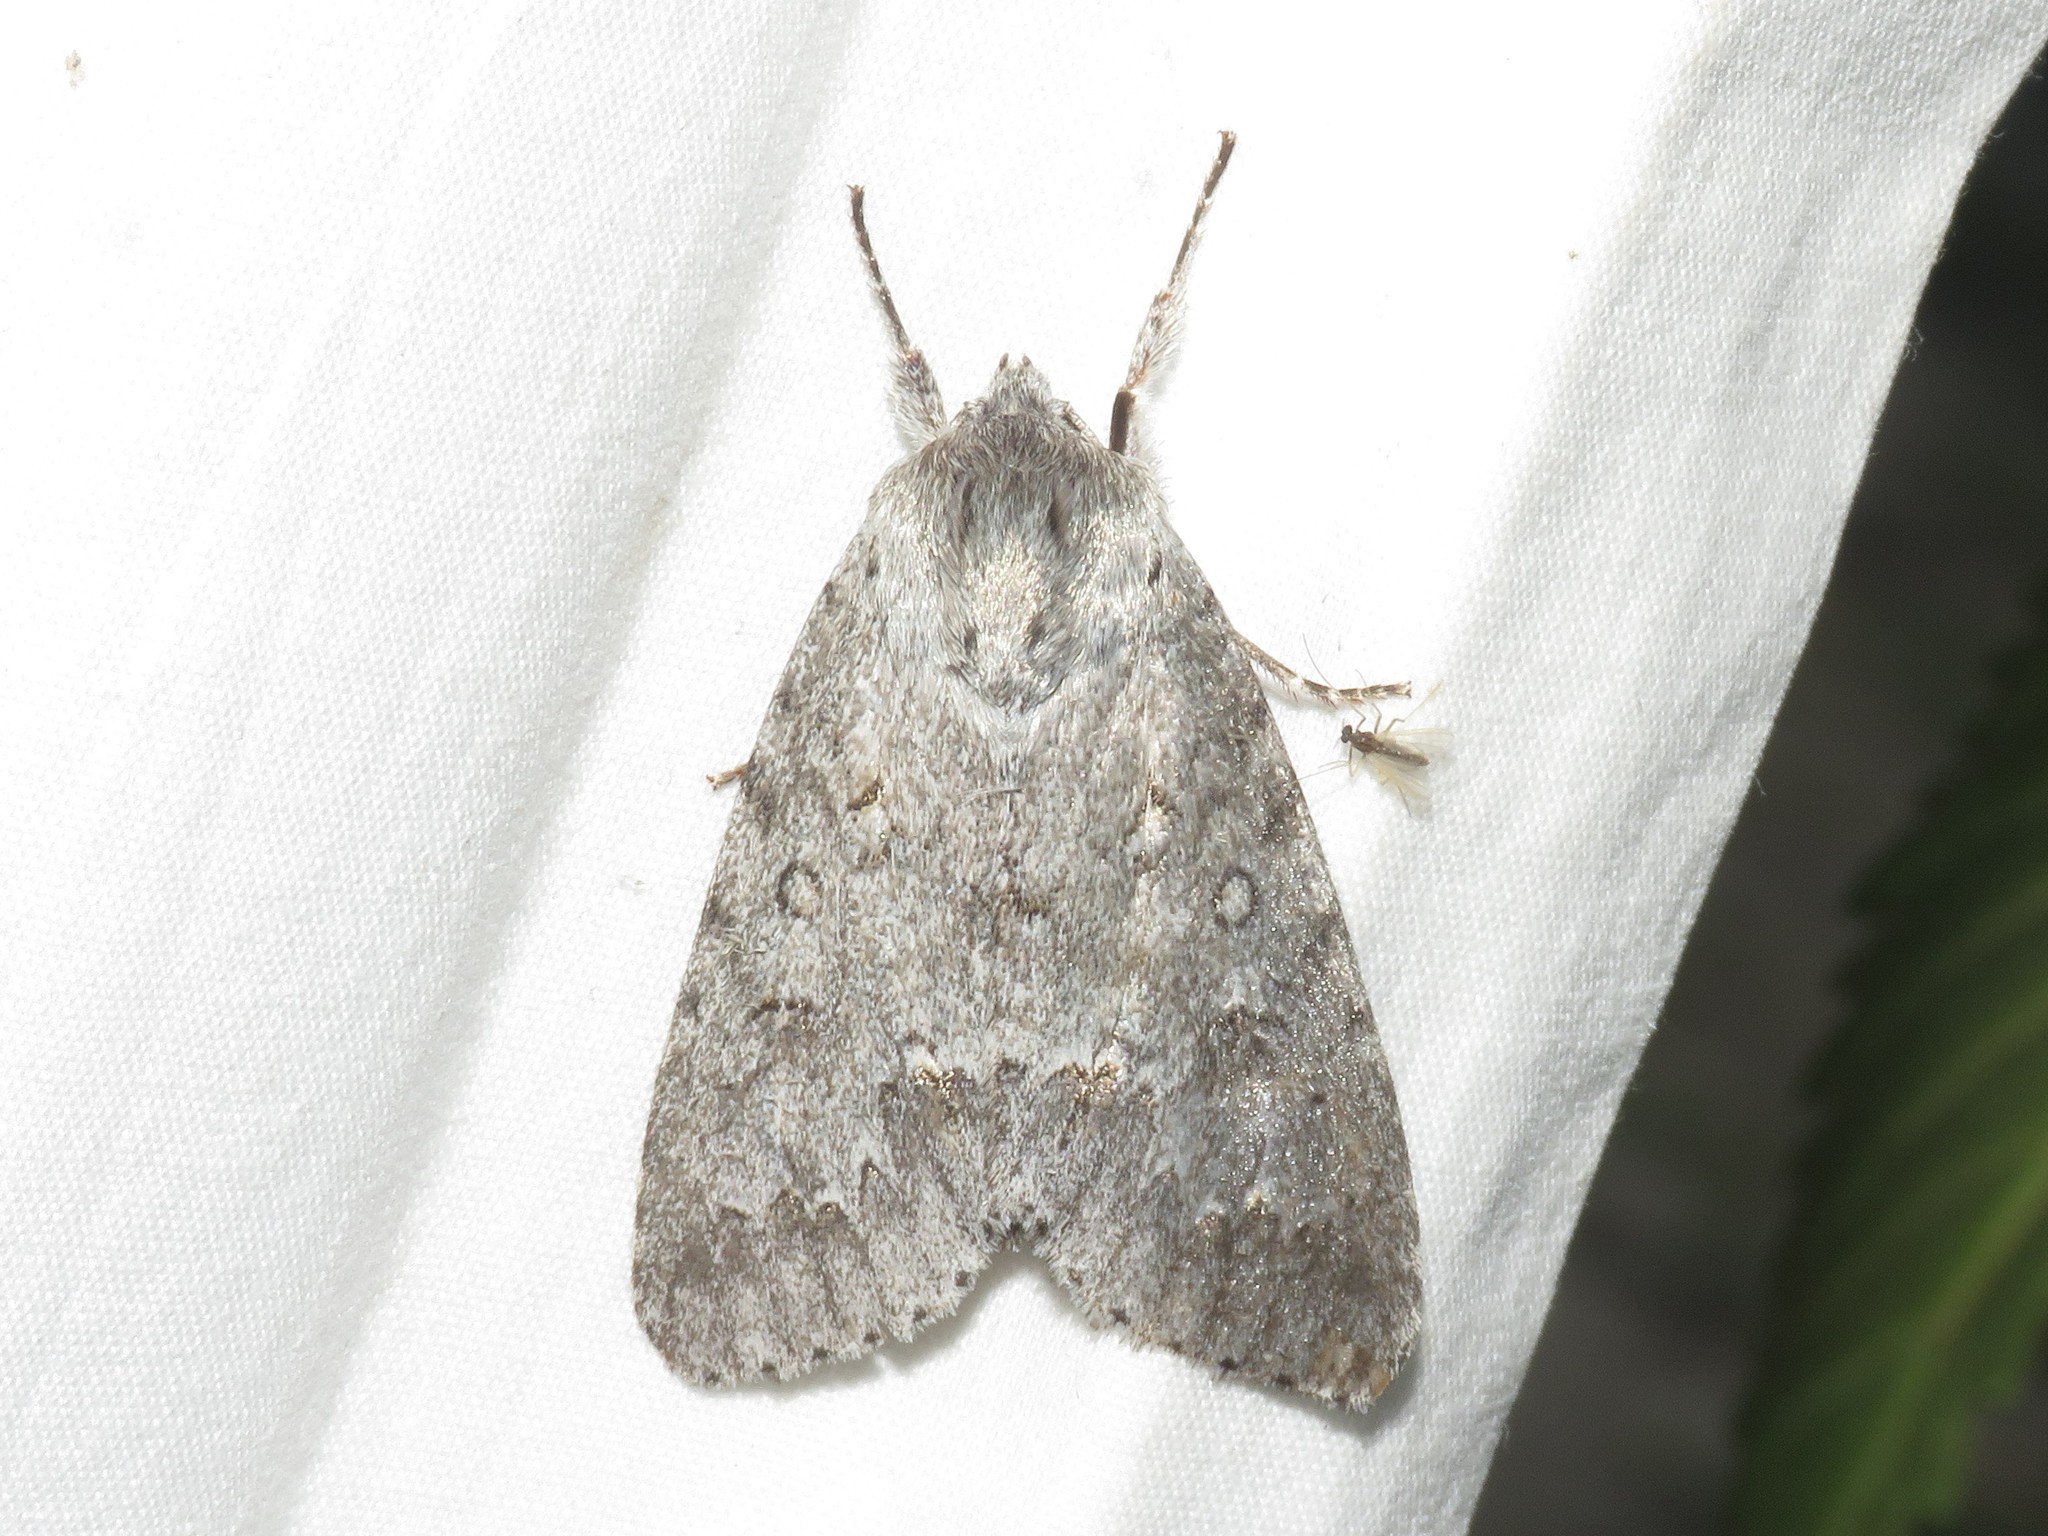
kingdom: Animalia
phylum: Arthropoda
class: Insecta
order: Lepidoptera
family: Noctuidae
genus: Acronicta
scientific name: Acronicta insita
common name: Large gray dagger
